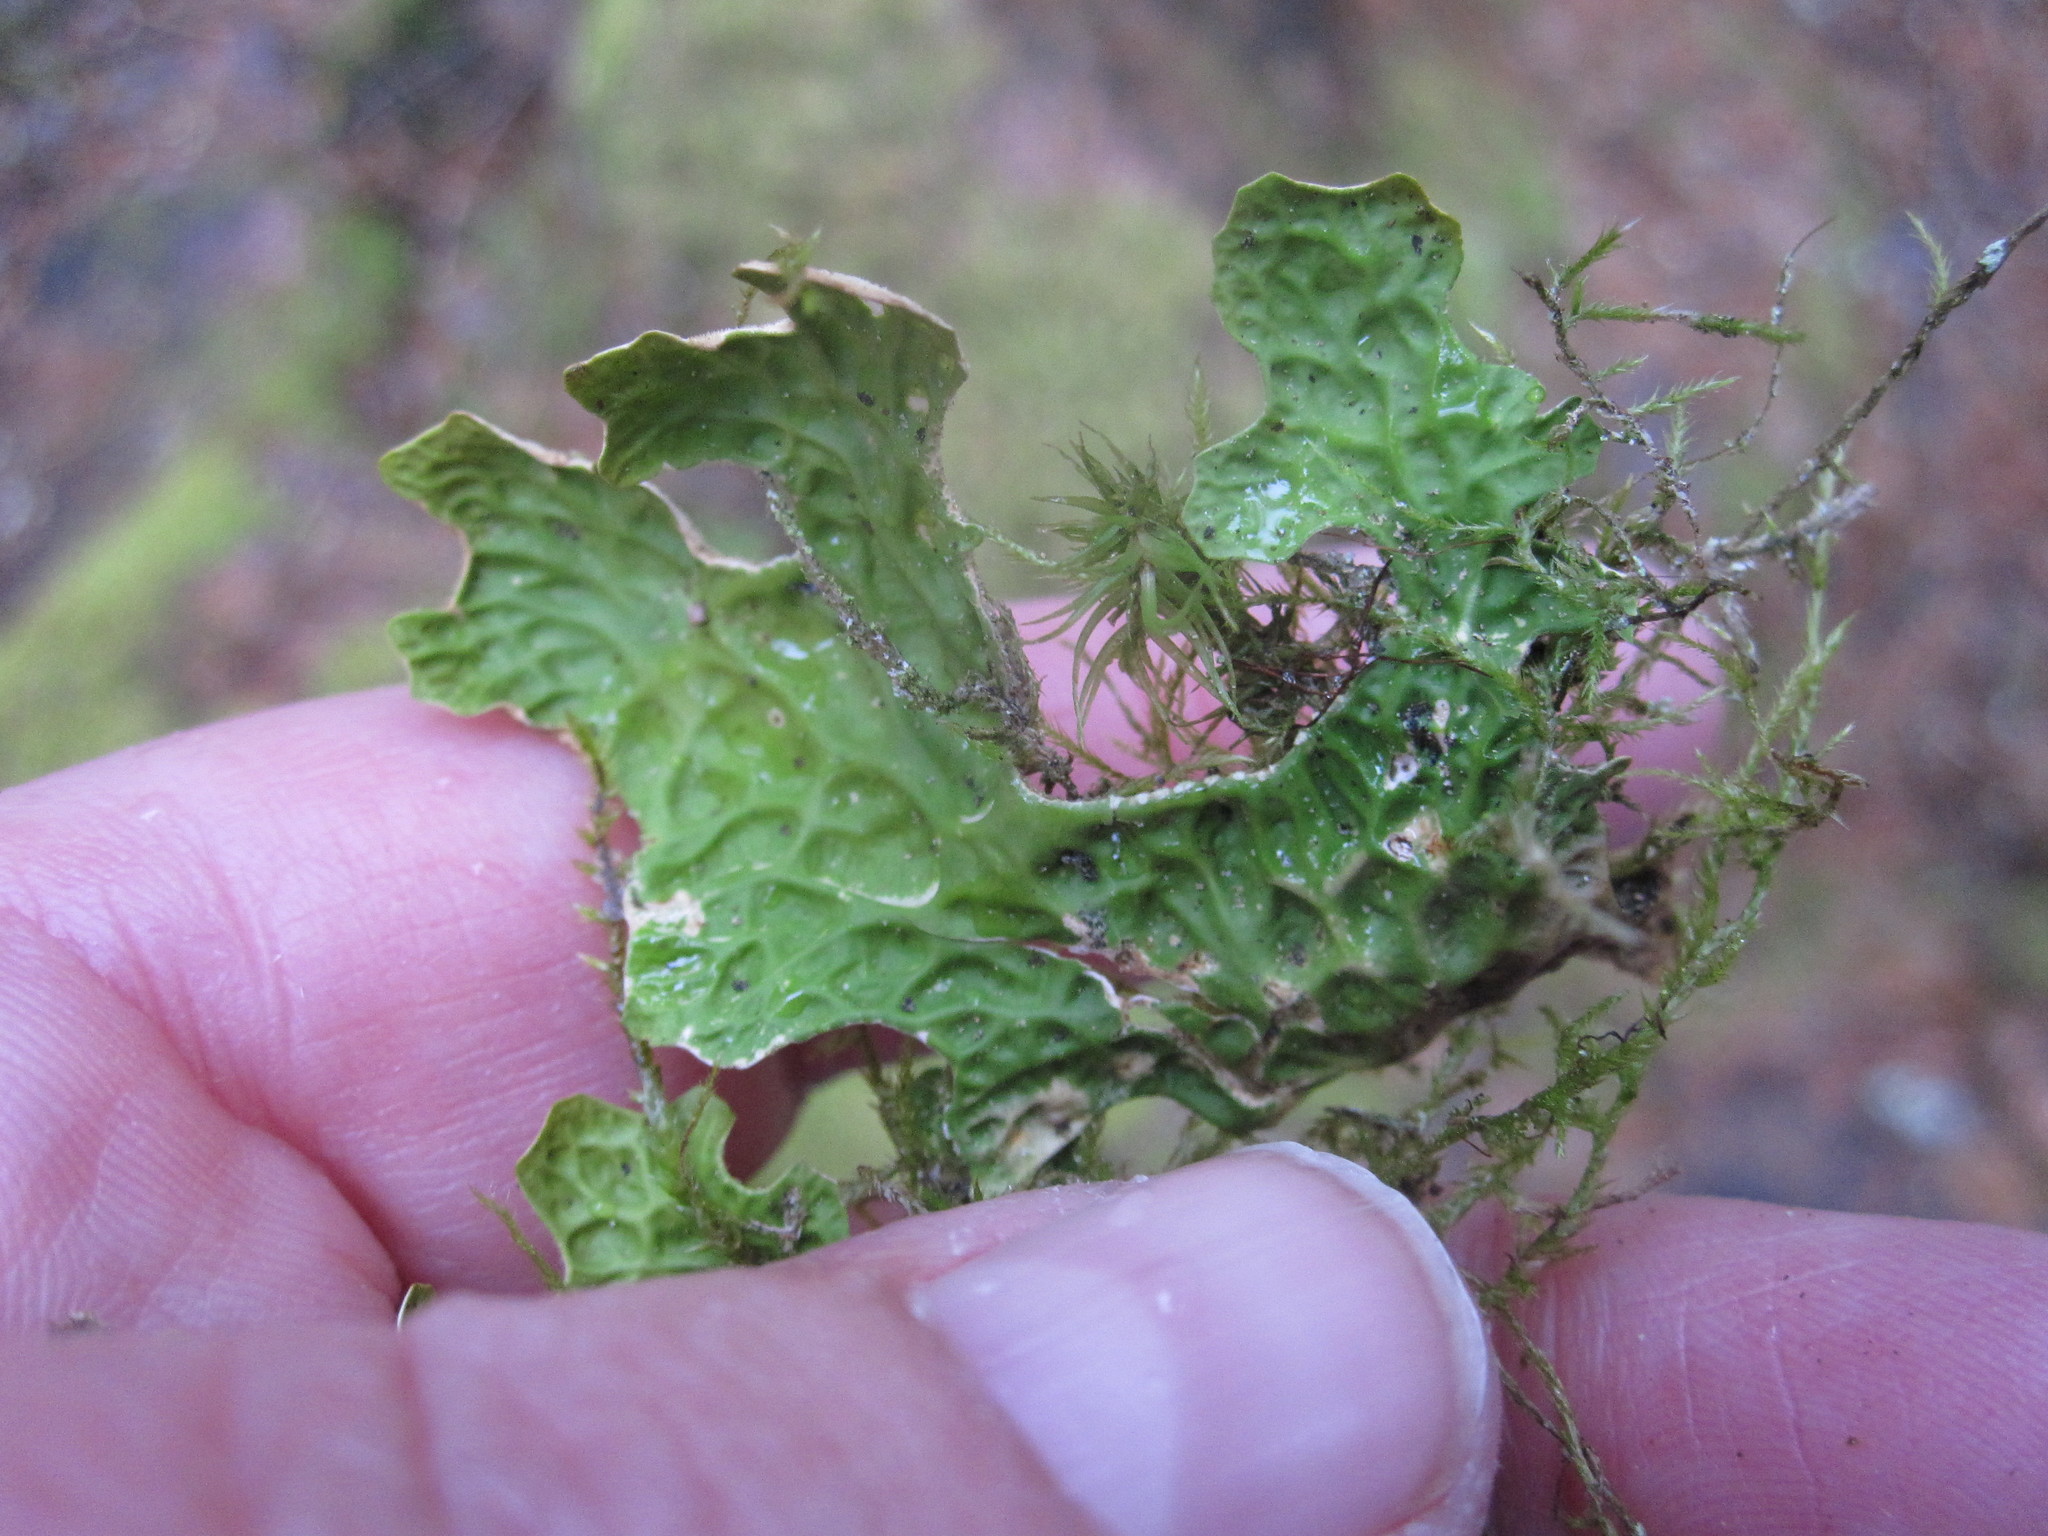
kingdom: Fungi
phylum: Ascomycota
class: Lecanoromycetes
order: Peltigerales
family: Lobariaceae
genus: Lobaria
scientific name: Lobaria pulmonaria
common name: Lungwort
